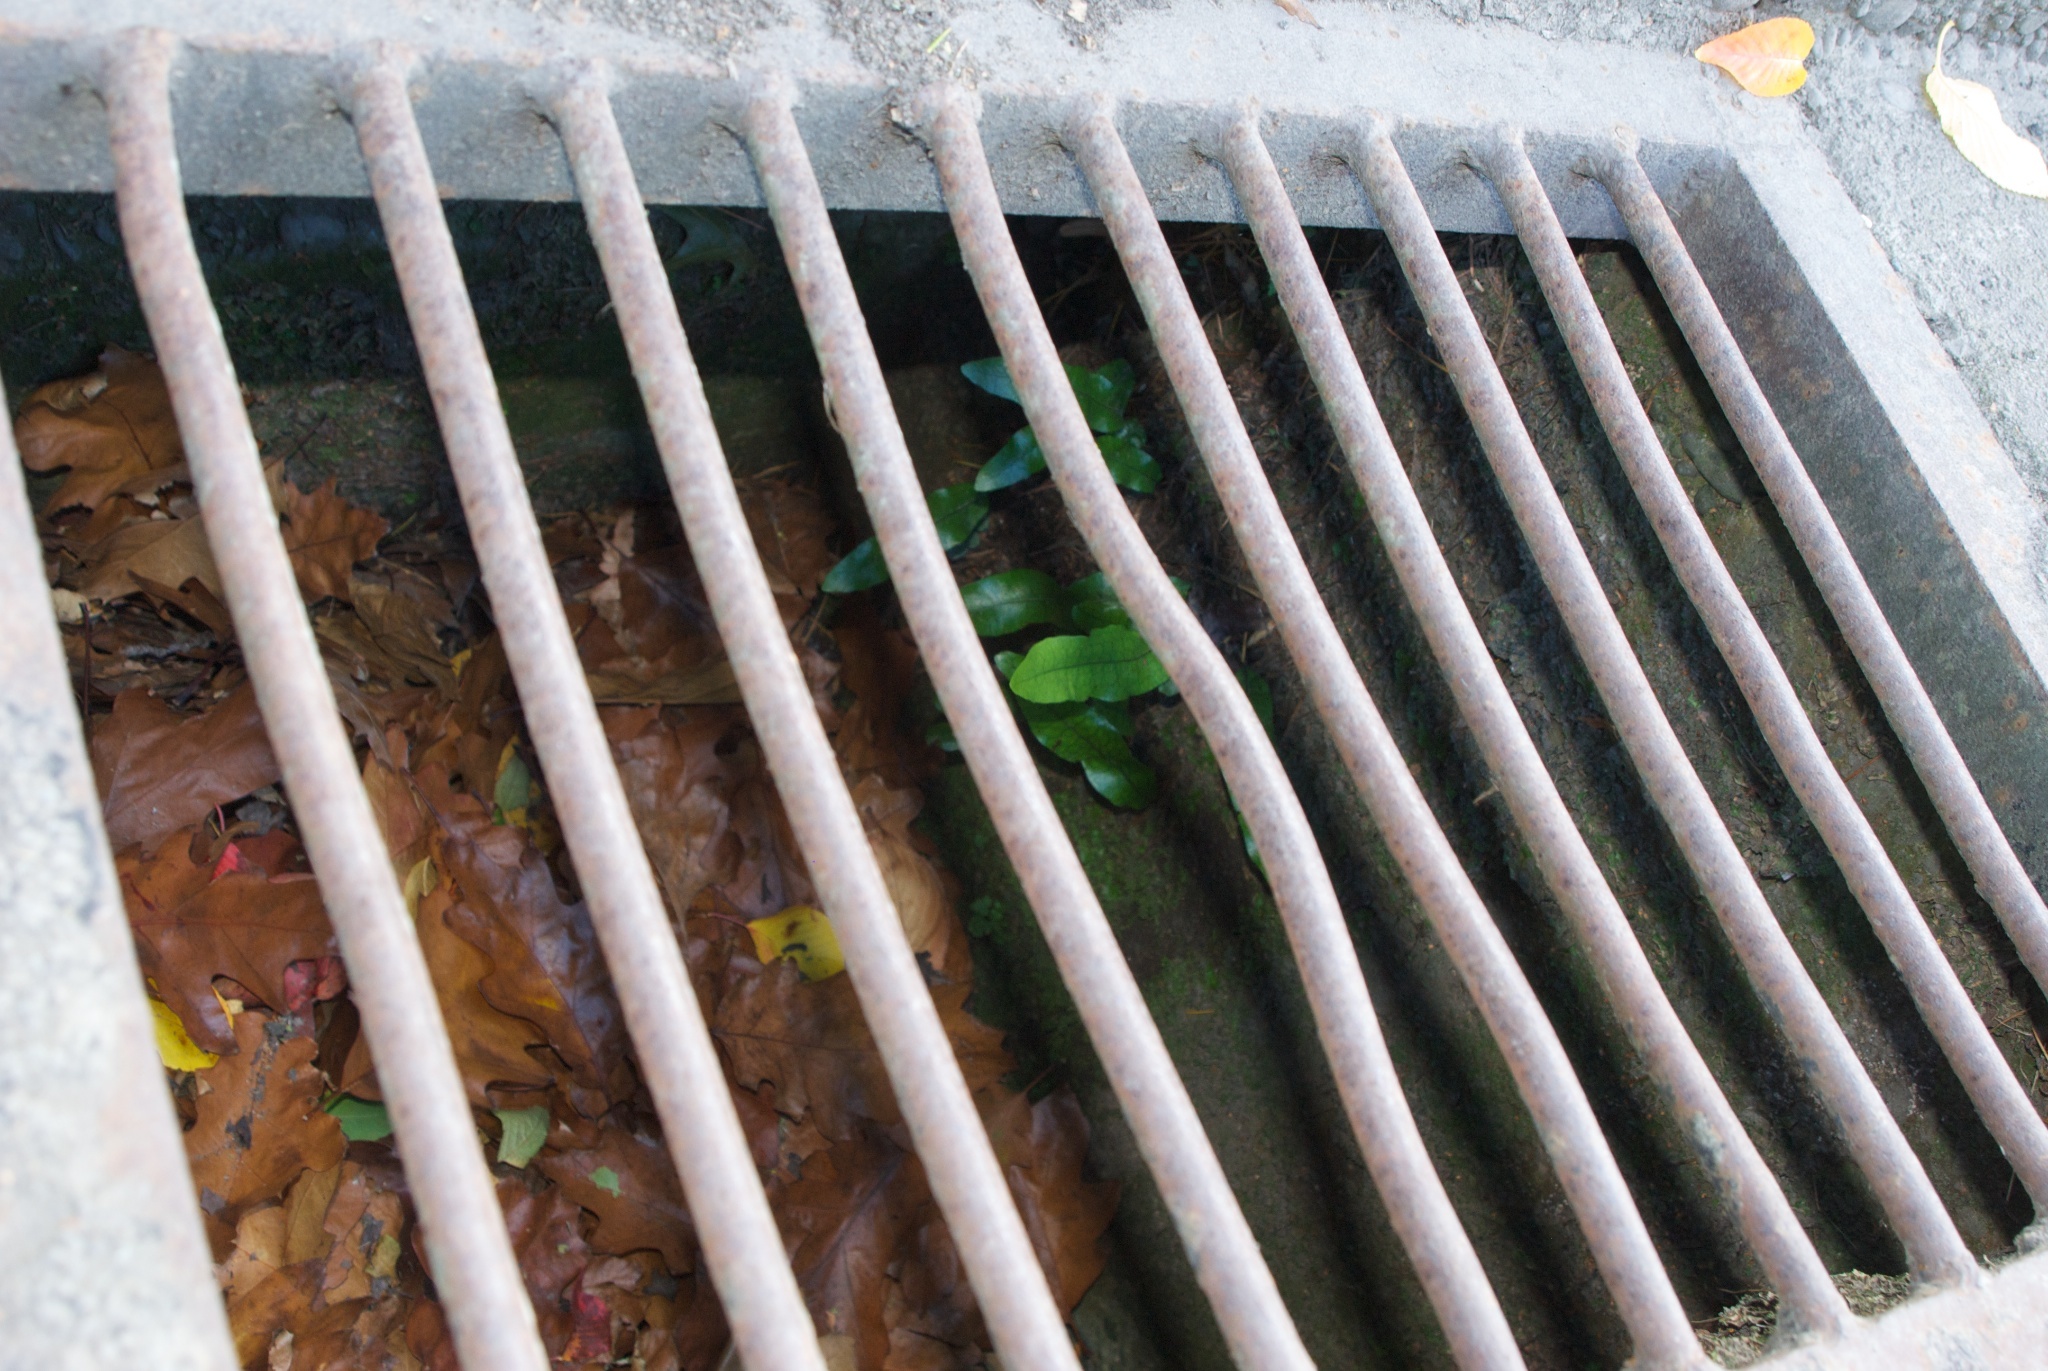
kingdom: Plantae
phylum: Tracheophyta
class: Polypodiopsida
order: Polypodiales
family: Polypodiaceae
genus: Lecanopteris
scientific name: Lecanopteris pustulata
